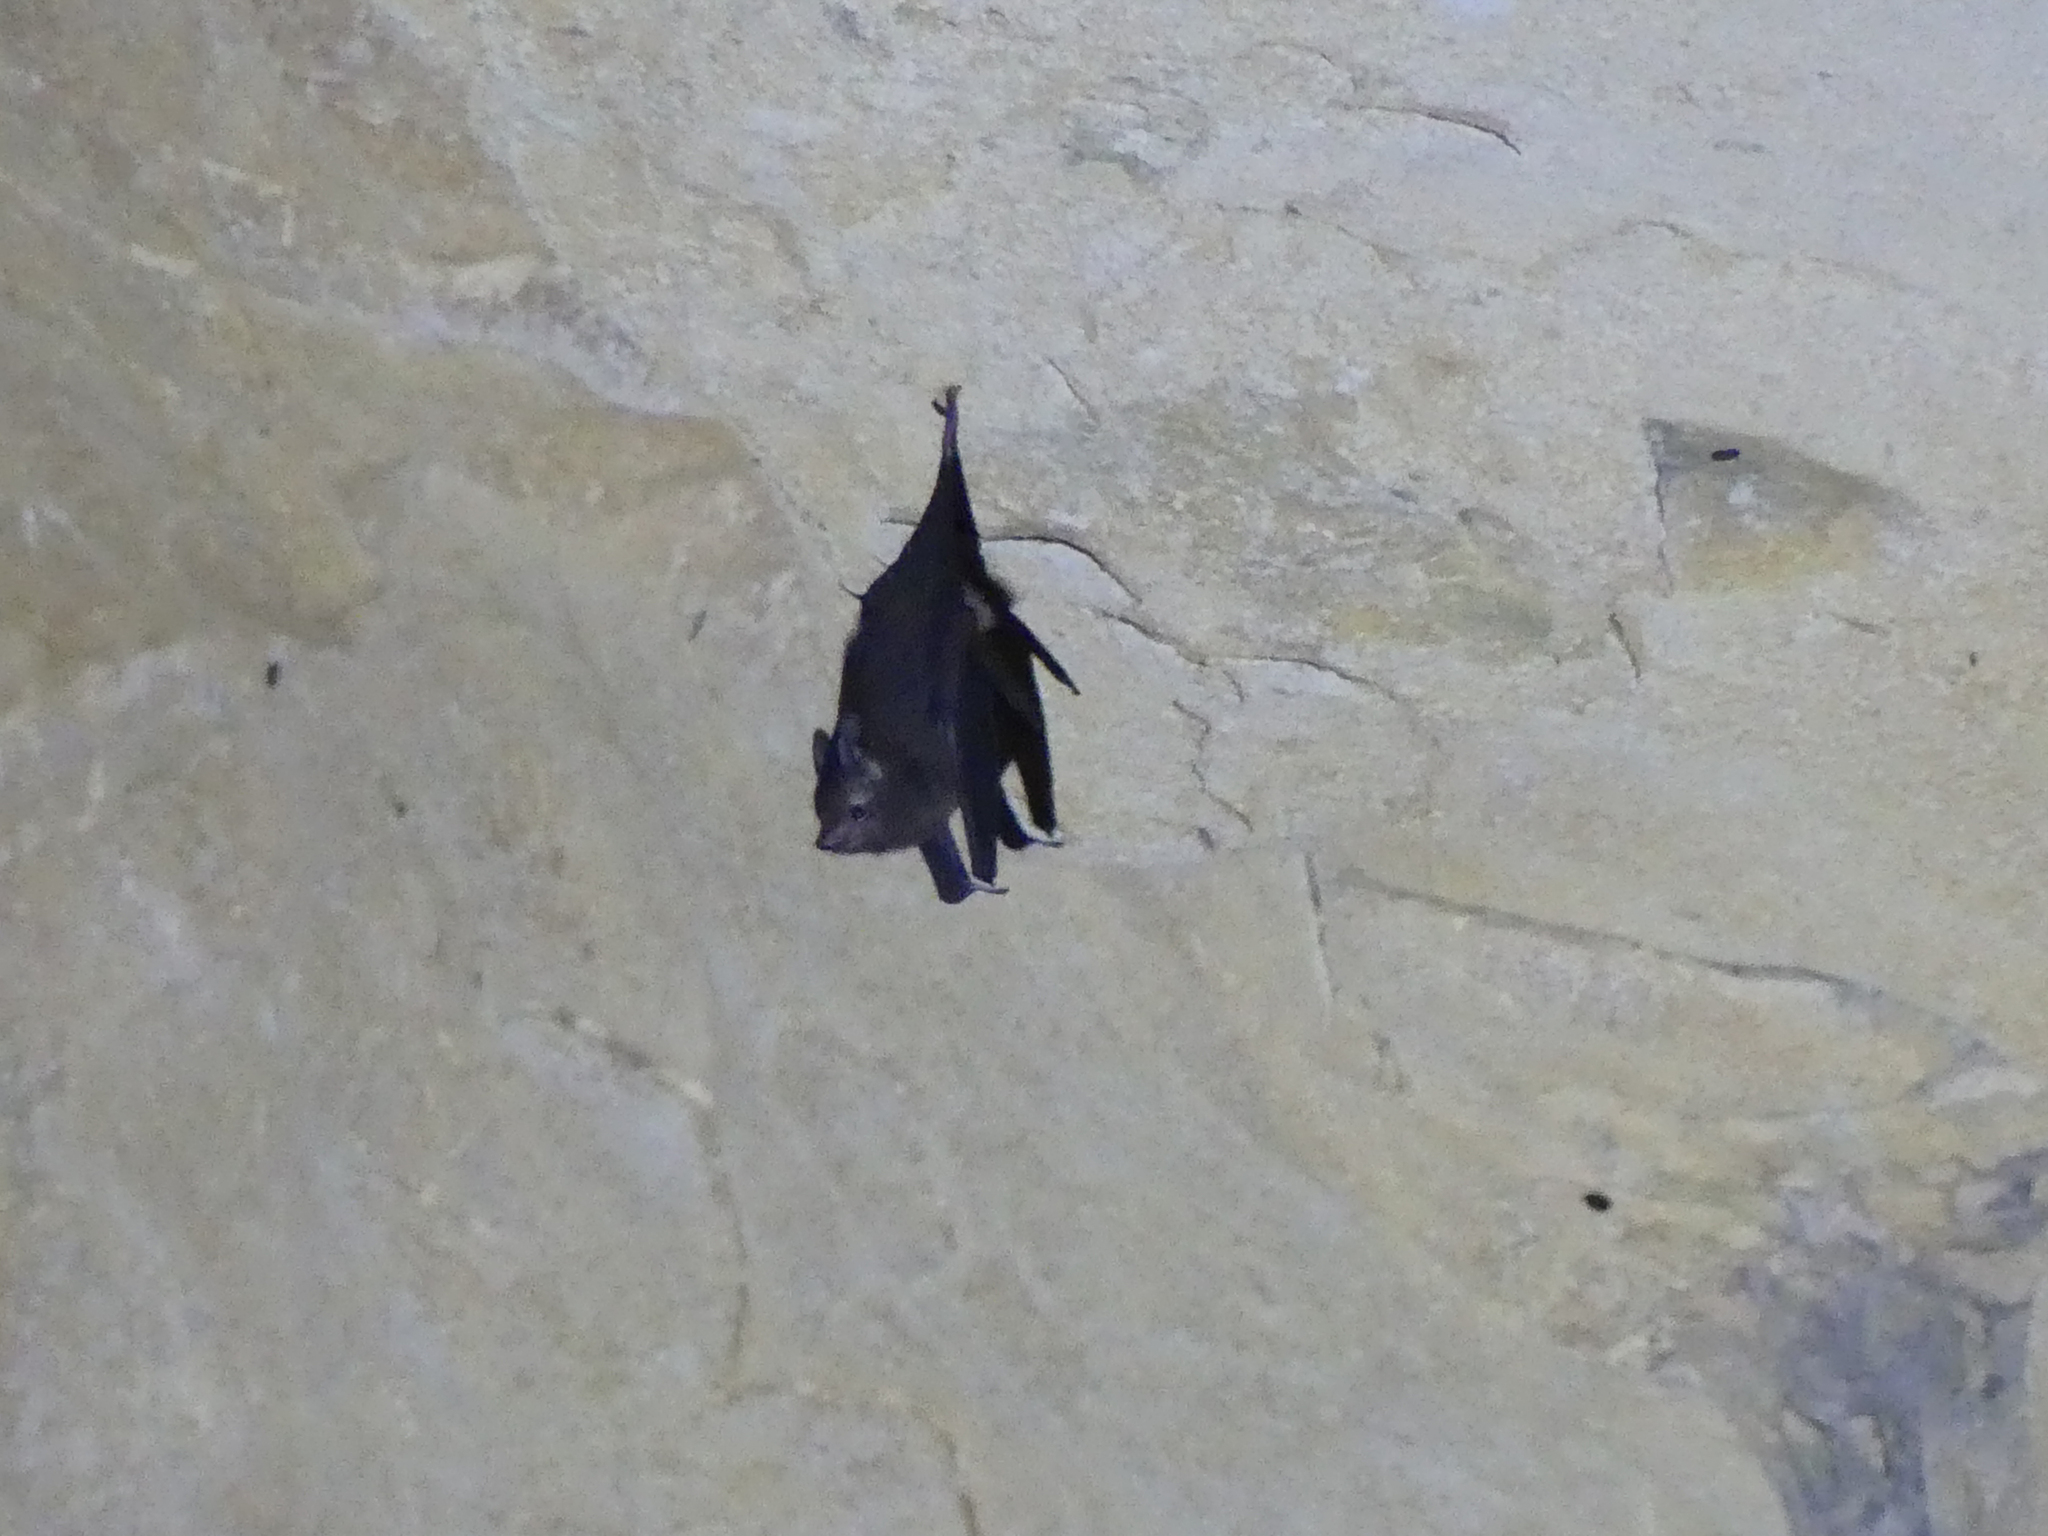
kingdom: Animalia
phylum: Chordata
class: Mammalia
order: Chiroptera
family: Emballonuridae
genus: Paremballonura
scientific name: Paremballonura tiavato
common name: Western sheath-tailed bat
